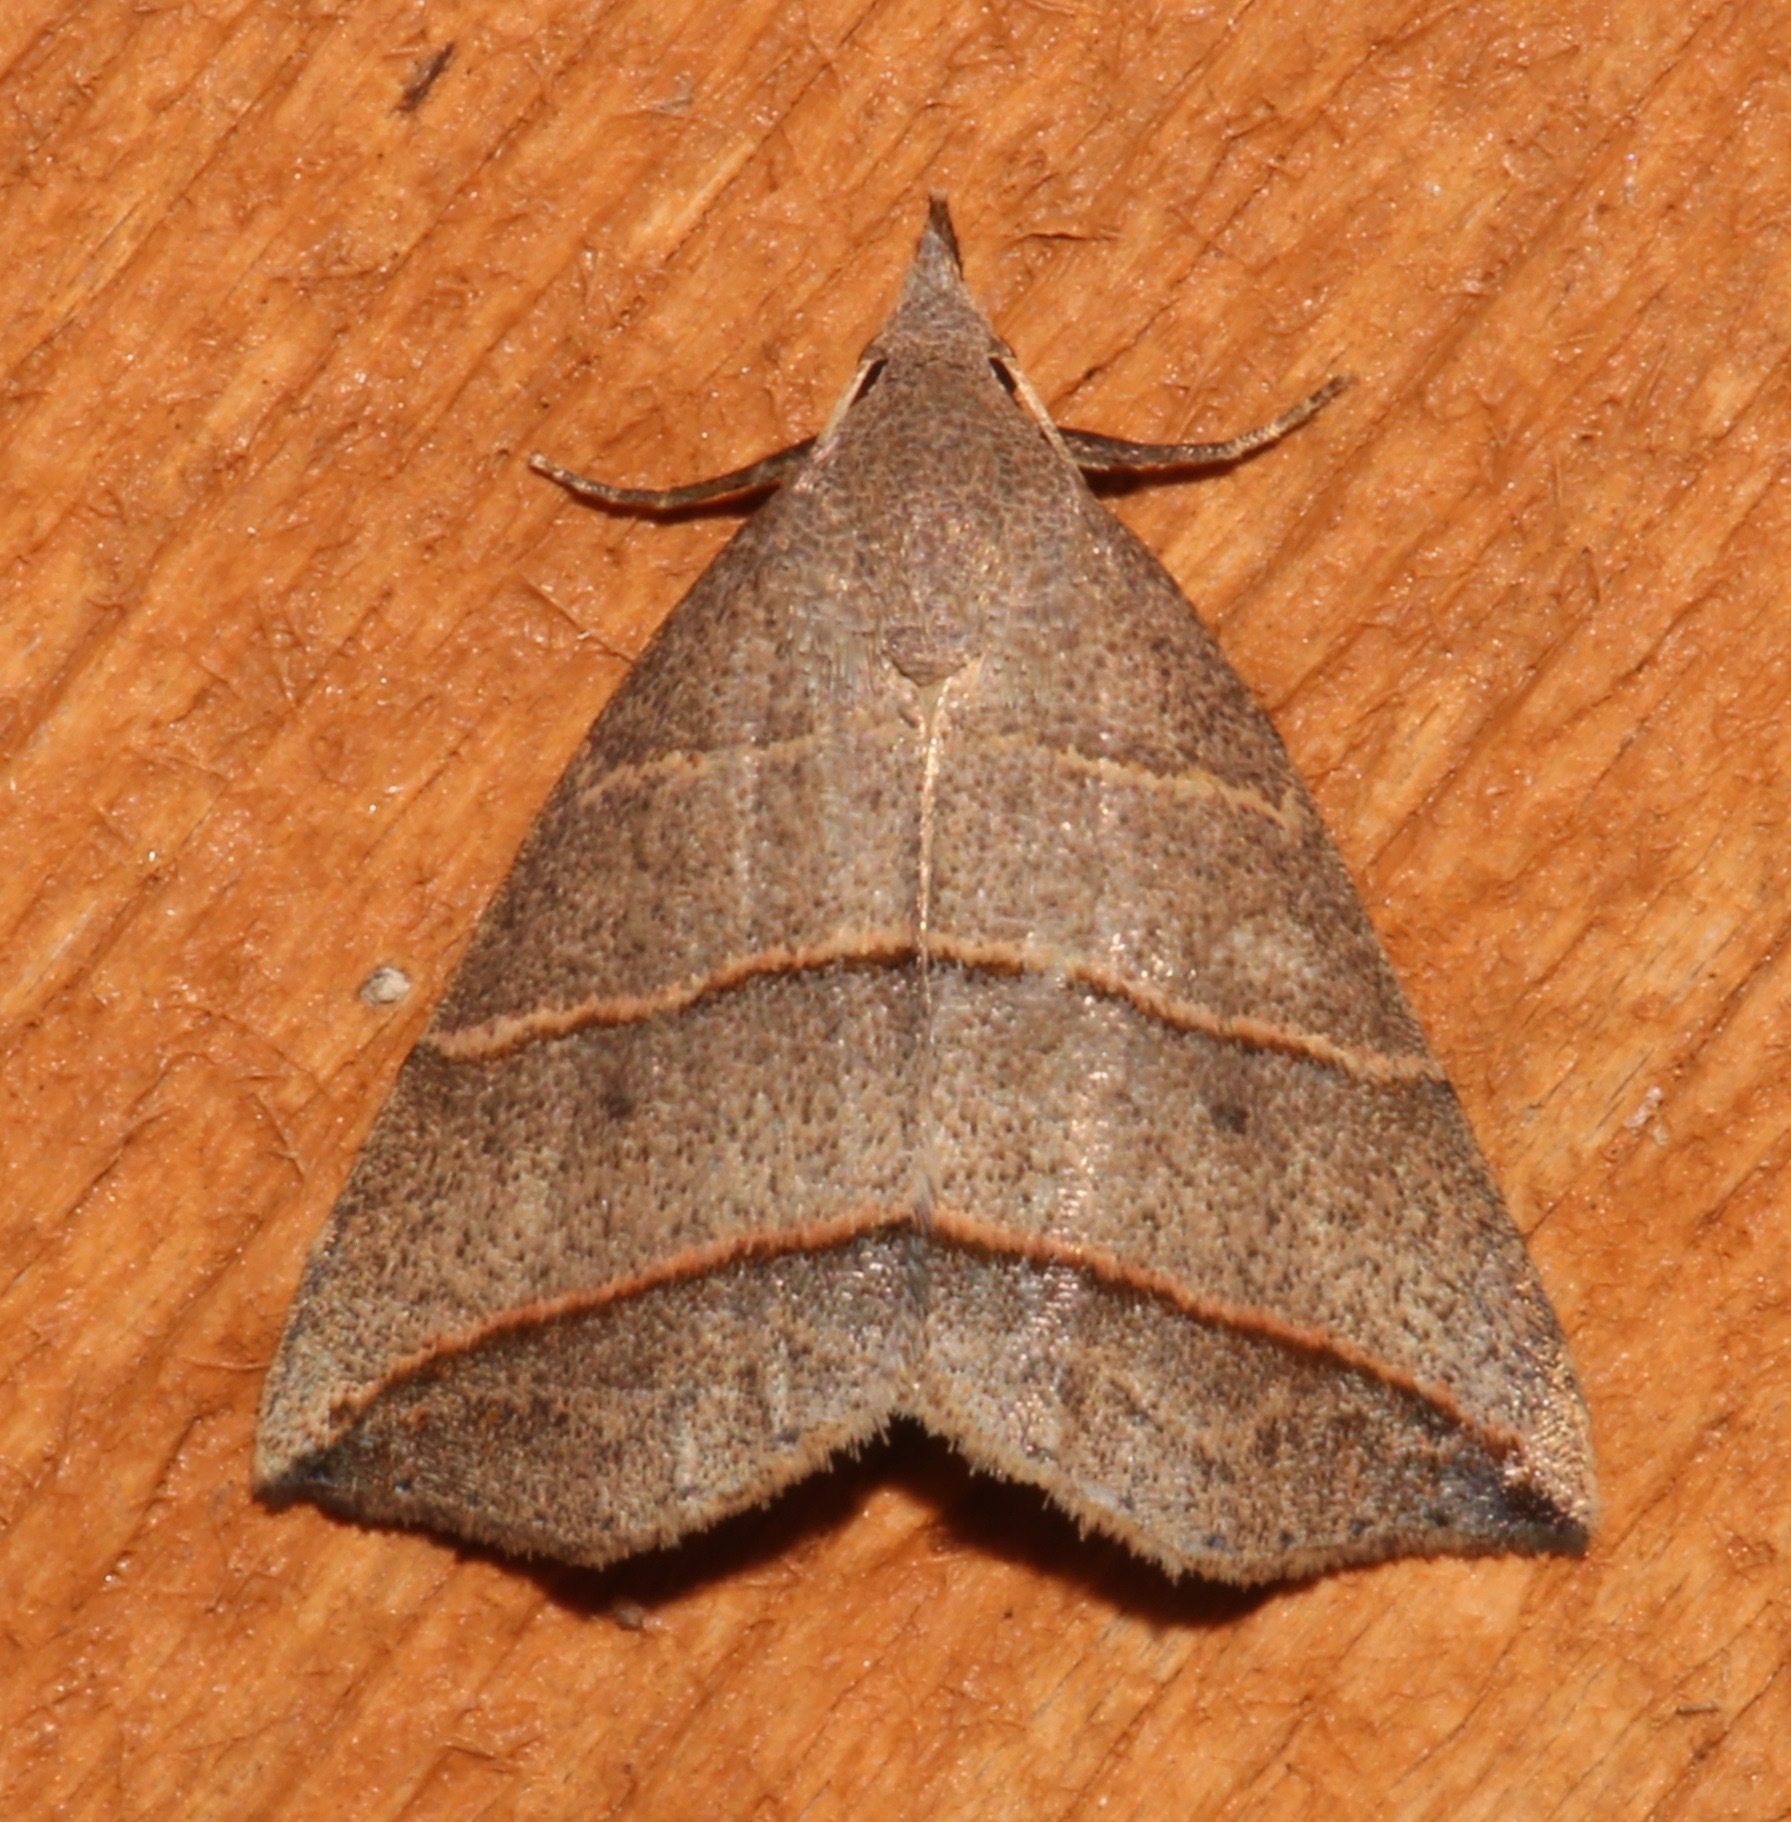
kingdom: Animalia
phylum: Arthropoda
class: Insecta
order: Lepidoptera
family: Erebidae
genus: Colobochyla
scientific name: Colobochyla interpuncta
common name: Yellow-lined owlet
